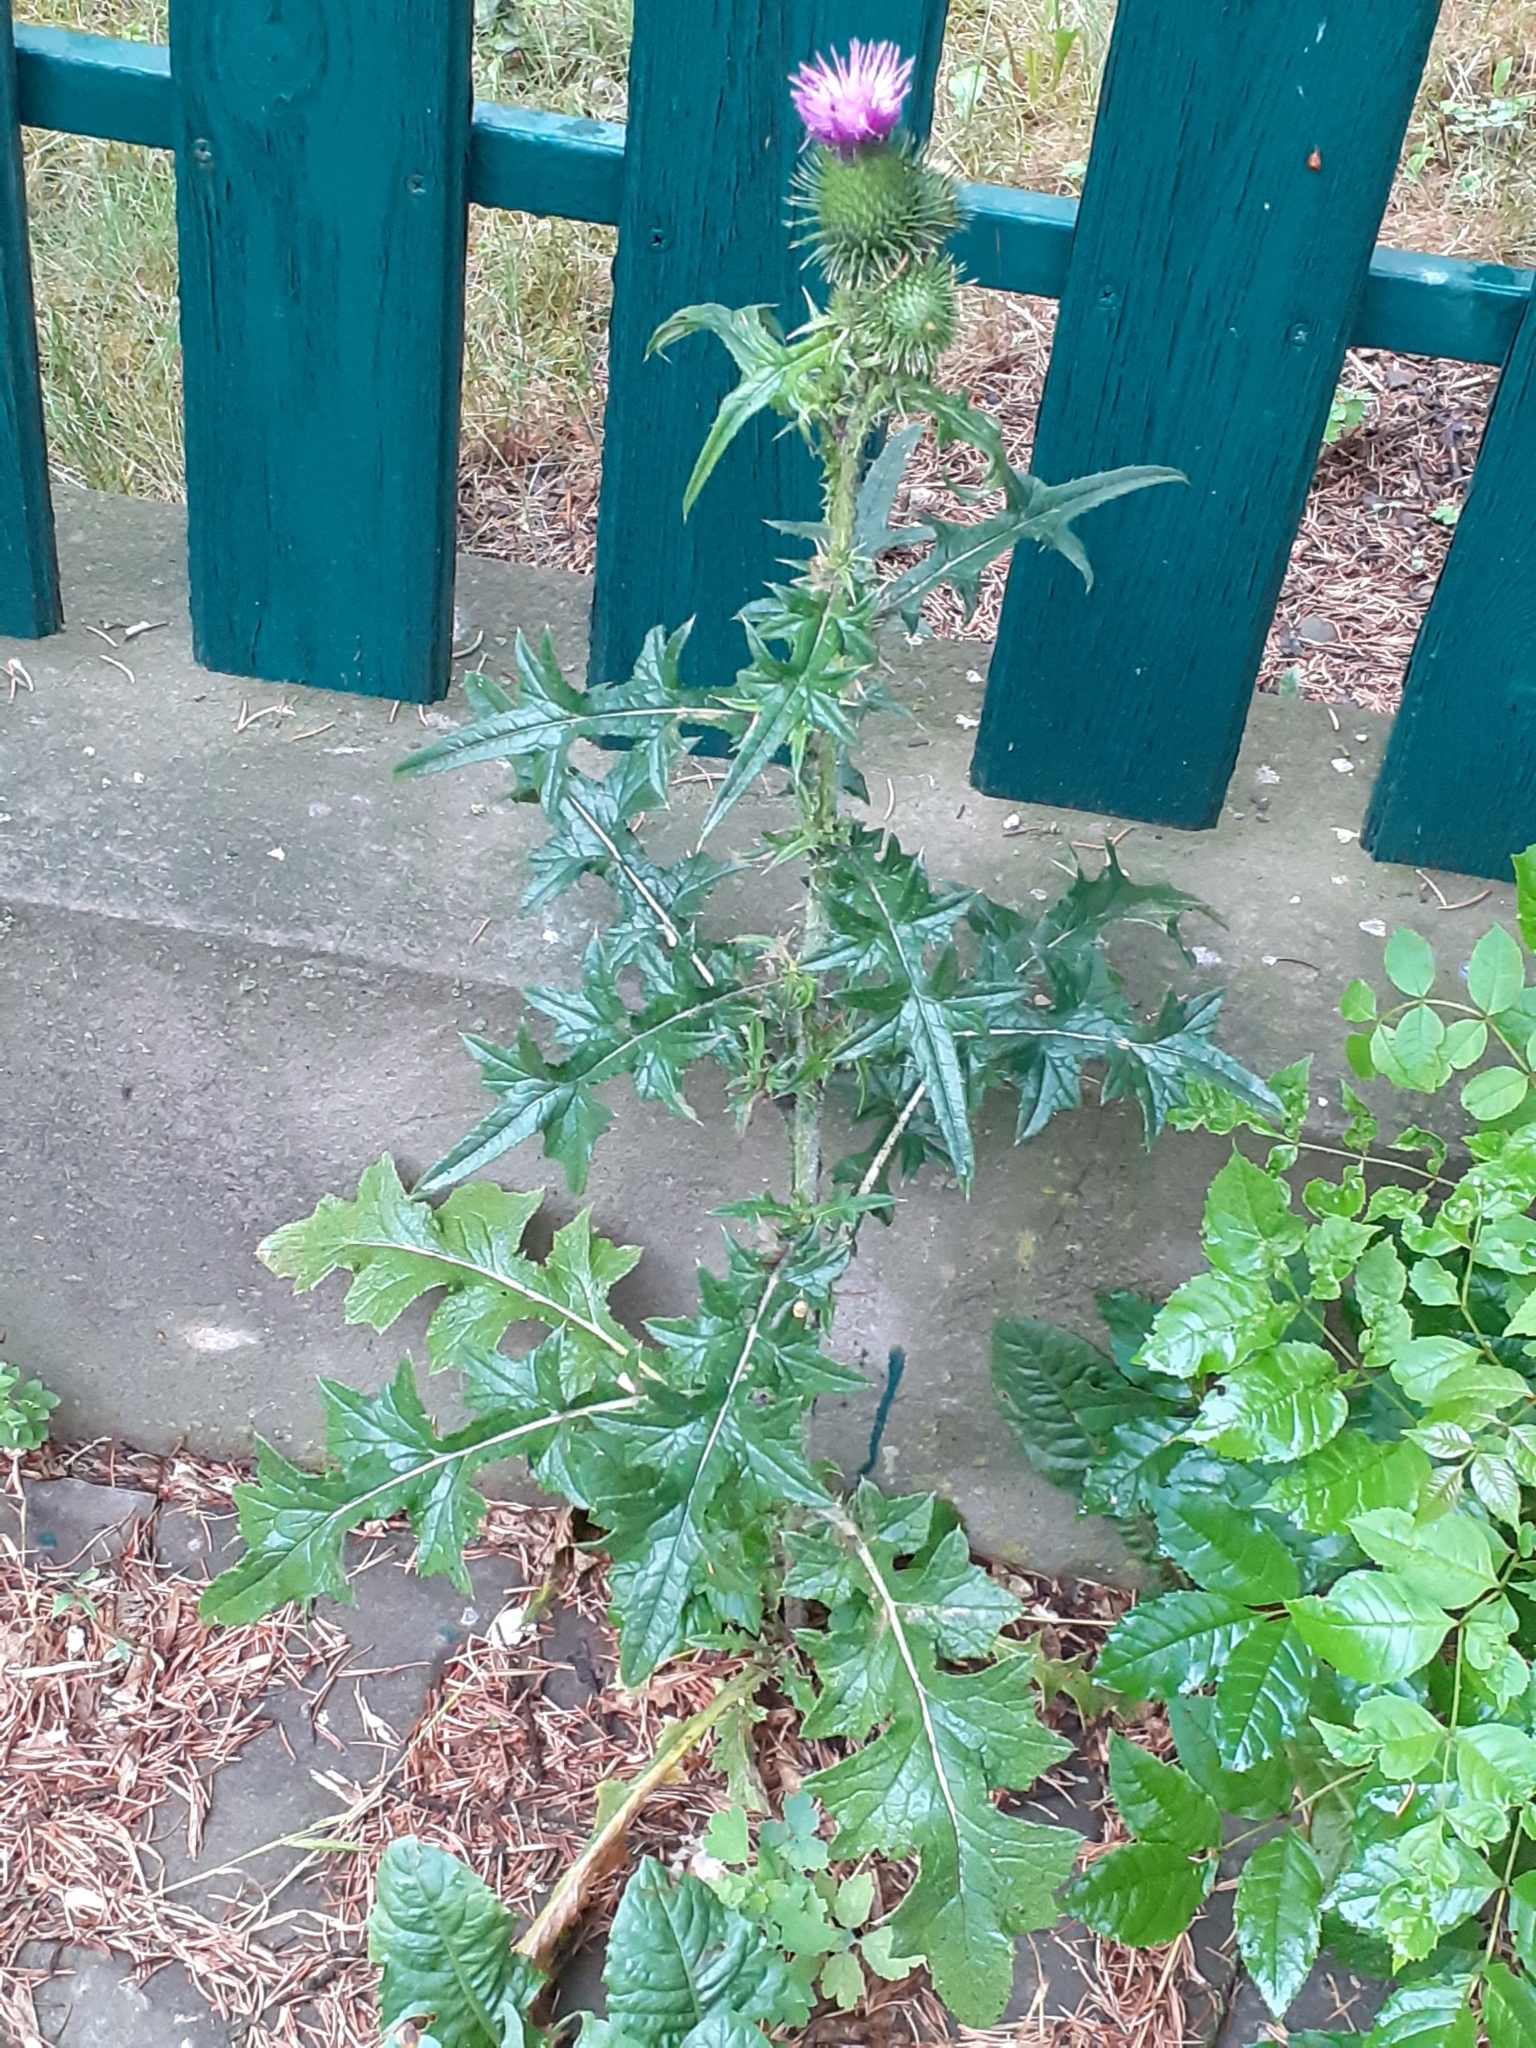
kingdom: Plantae
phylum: Tracheophyta
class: Magnoliopsida
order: Asterales
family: Asteraceae
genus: Cirsium
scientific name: Cirsium vulgare
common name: Bull thistle
